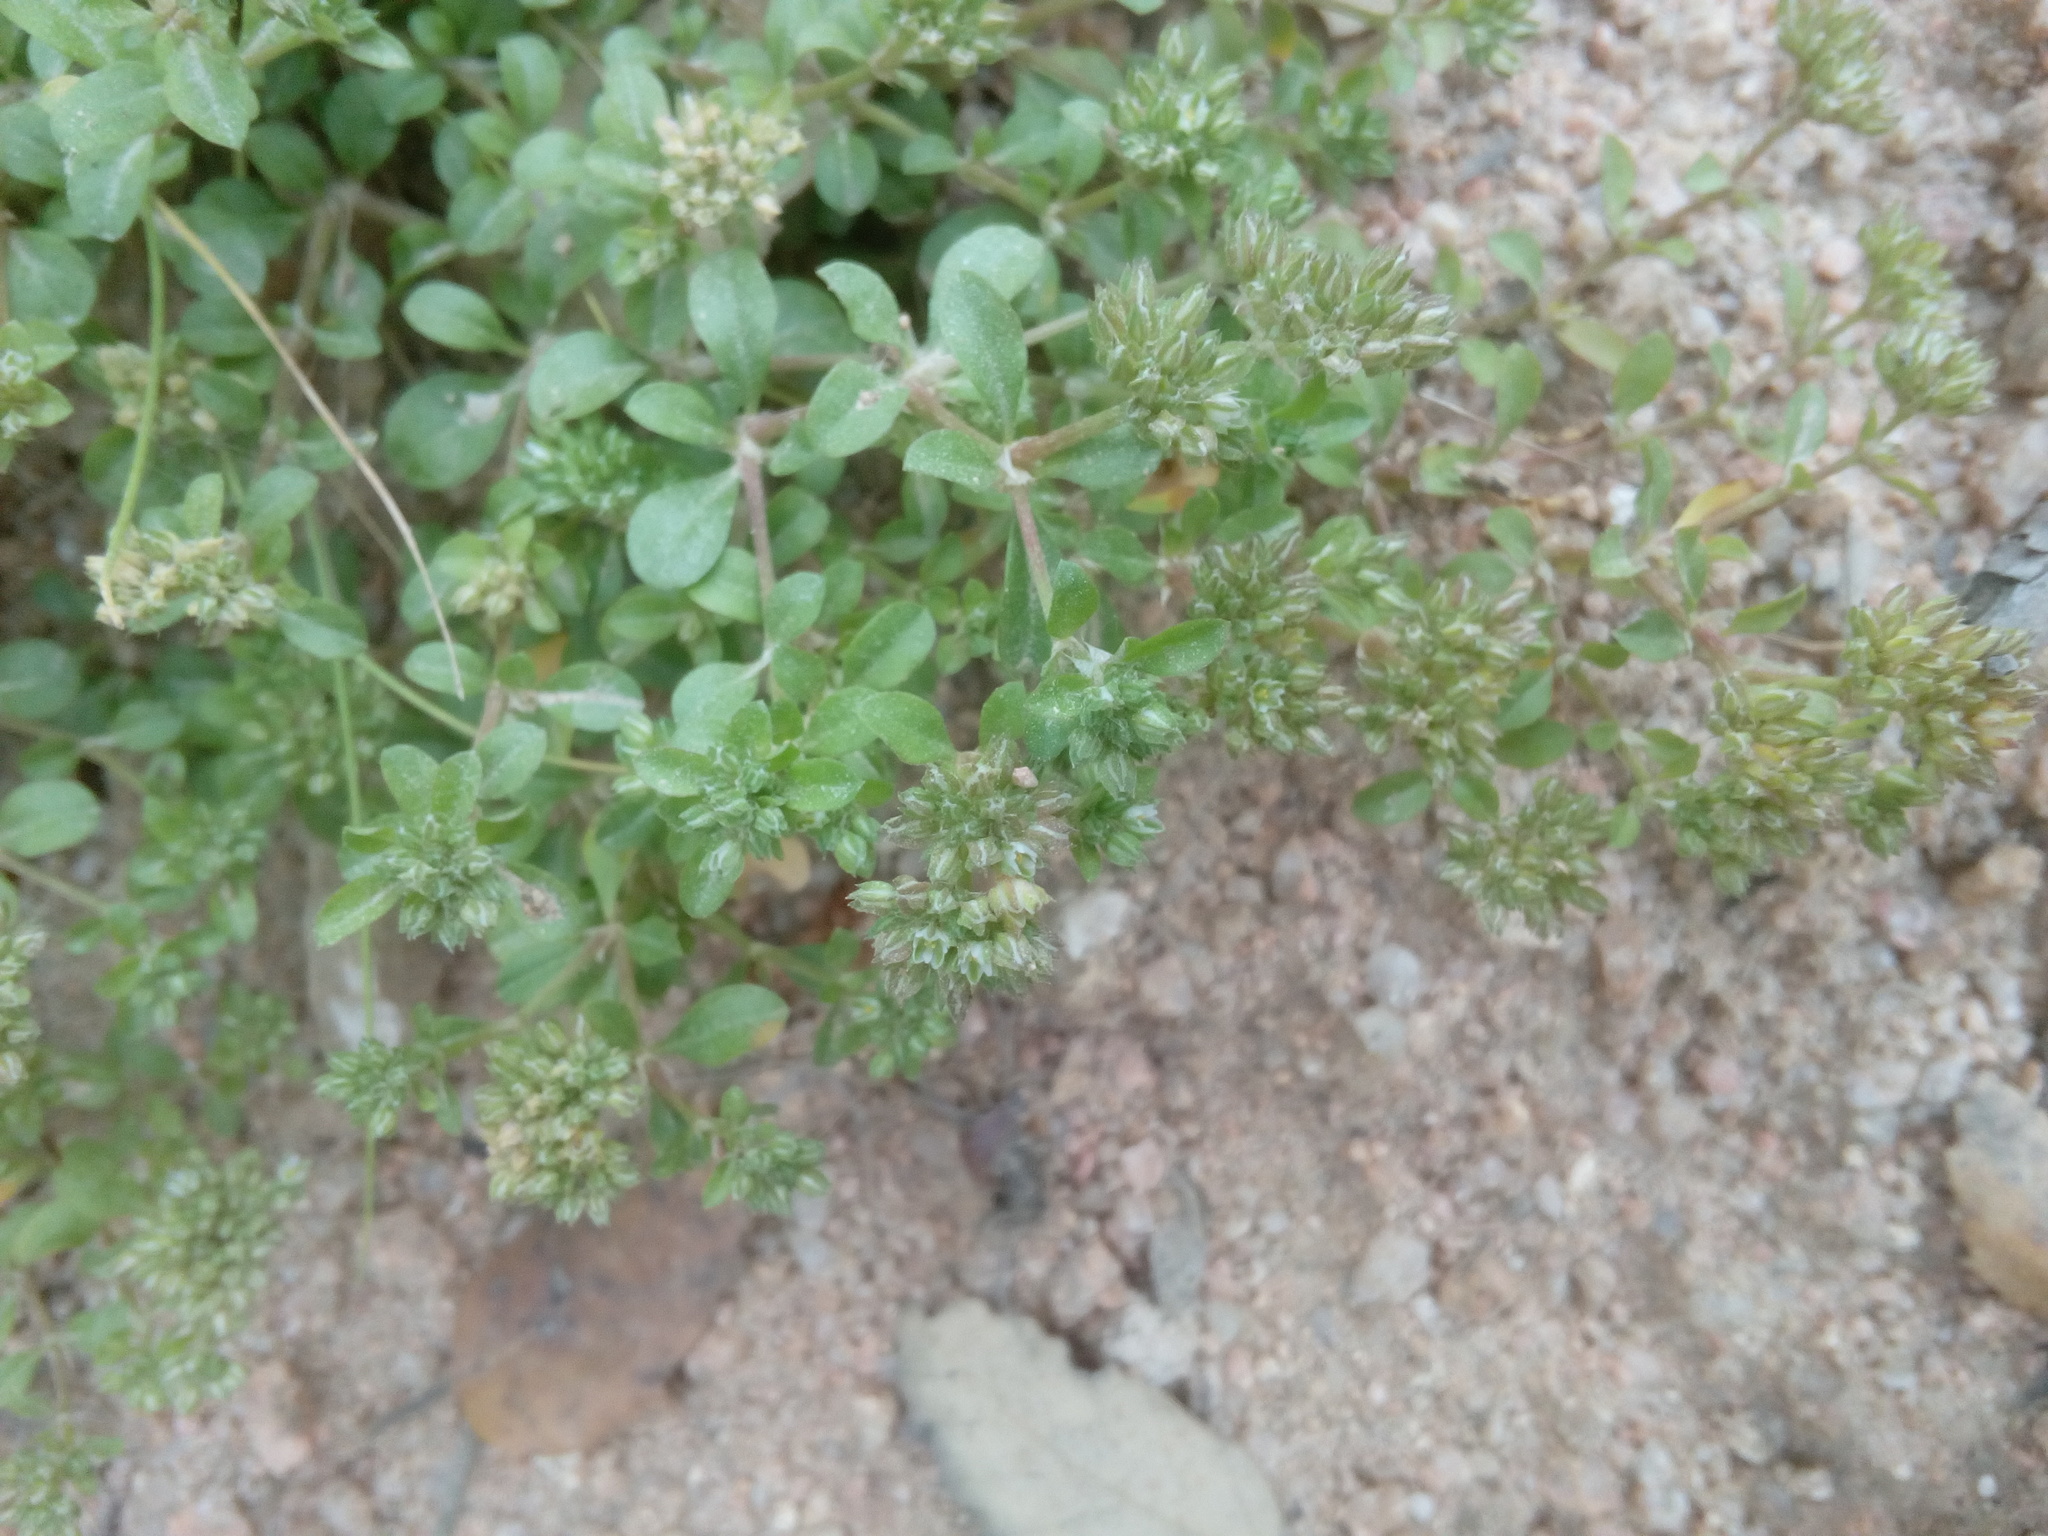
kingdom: Plantae
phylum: Tracheophyta
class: Magnoliopsida
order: Caryophyllales
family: Caryophyllaceae
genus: Polycarpon
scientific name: Polycarpon tetraphyllum
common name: Four-leaved all-seed
